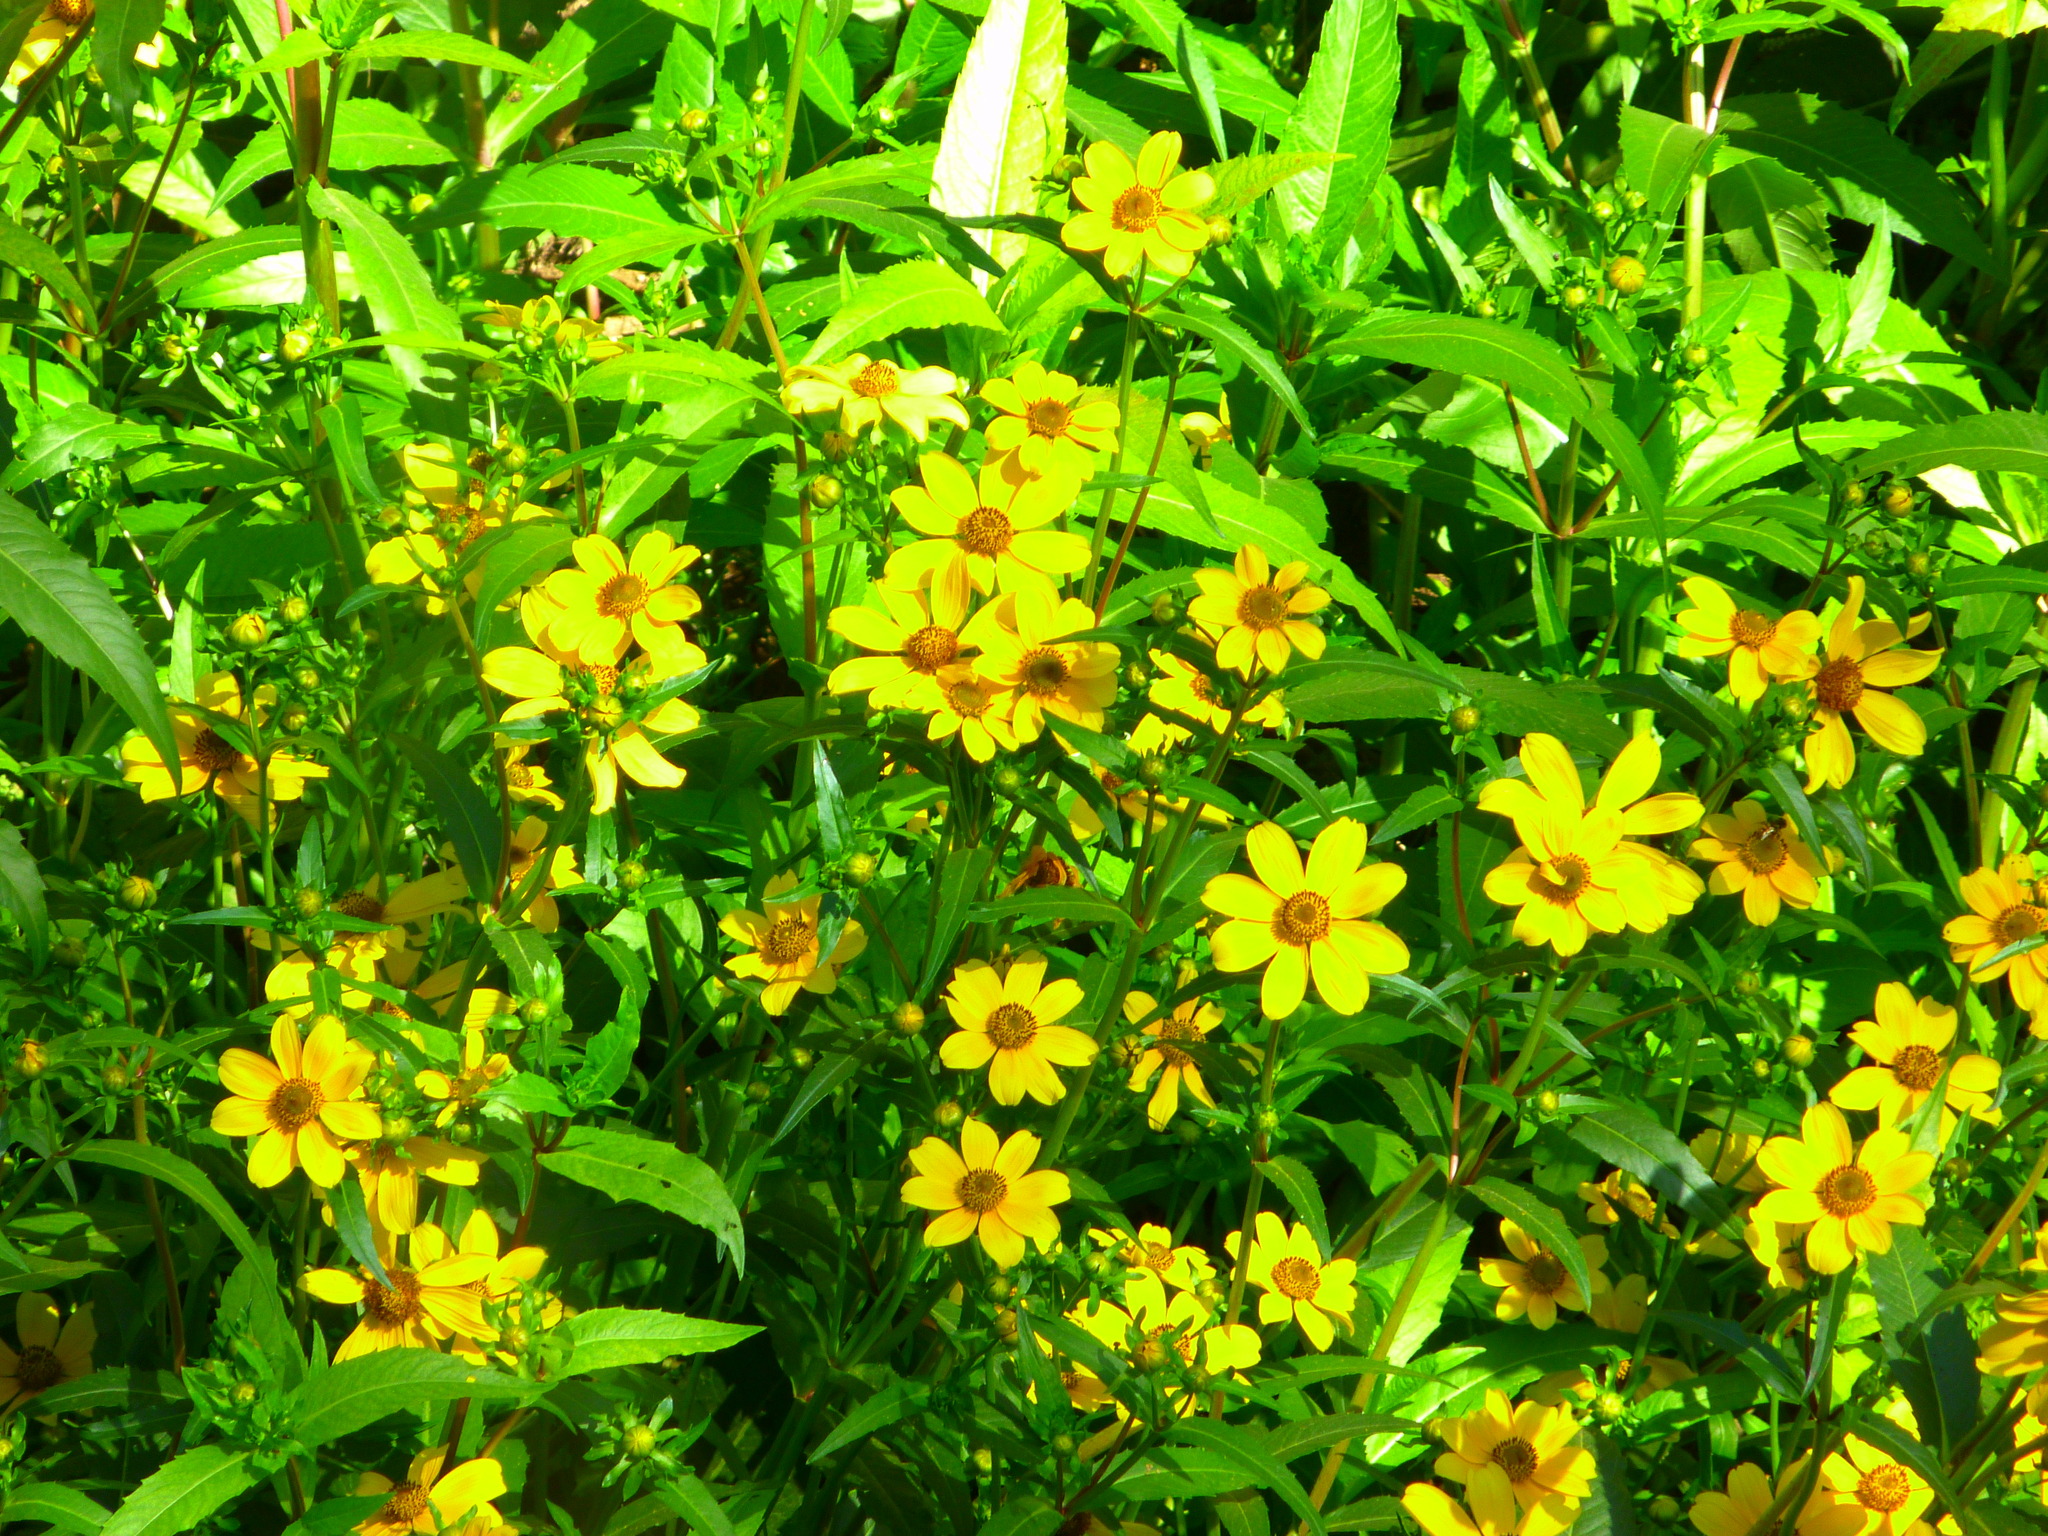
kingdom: Plantae
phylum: Tracheophyta
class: Magnoliopsida
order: Asterales
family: Asteraceae
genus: Bidens
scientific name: Bidens laevis
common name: Larger bur-marigold
